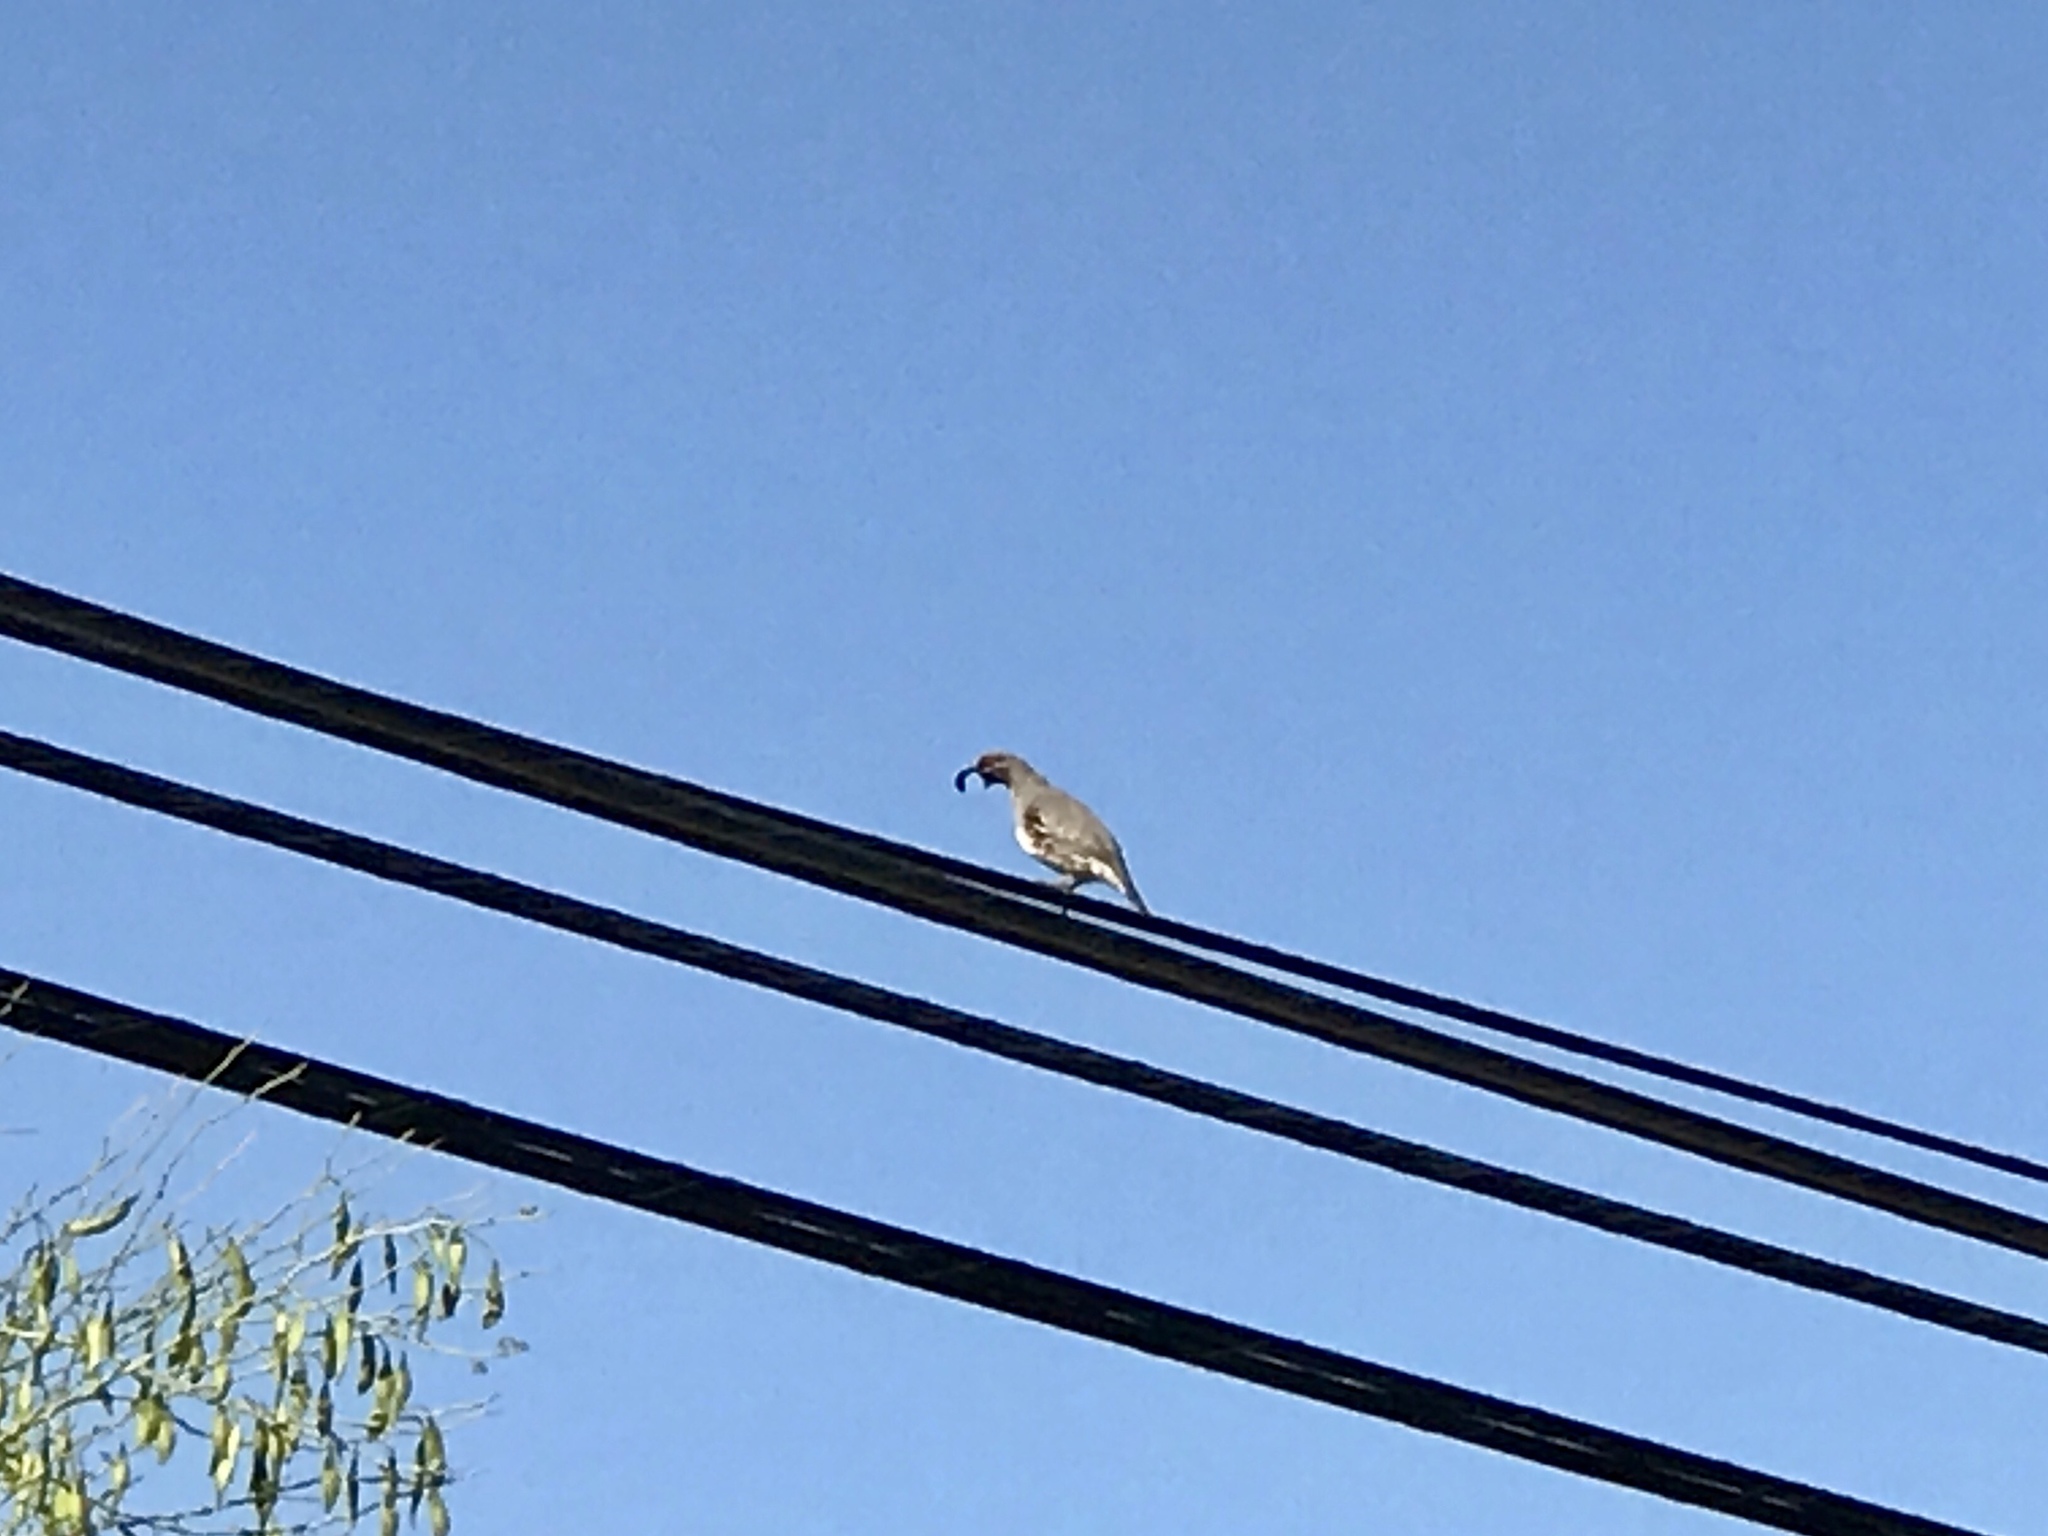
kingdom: Animalia
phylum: Chordata
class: Aves
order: Galliformes
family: Odontophoridae
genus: Callipepla
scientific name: Callipepla gambelii
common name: Gambel's quail
